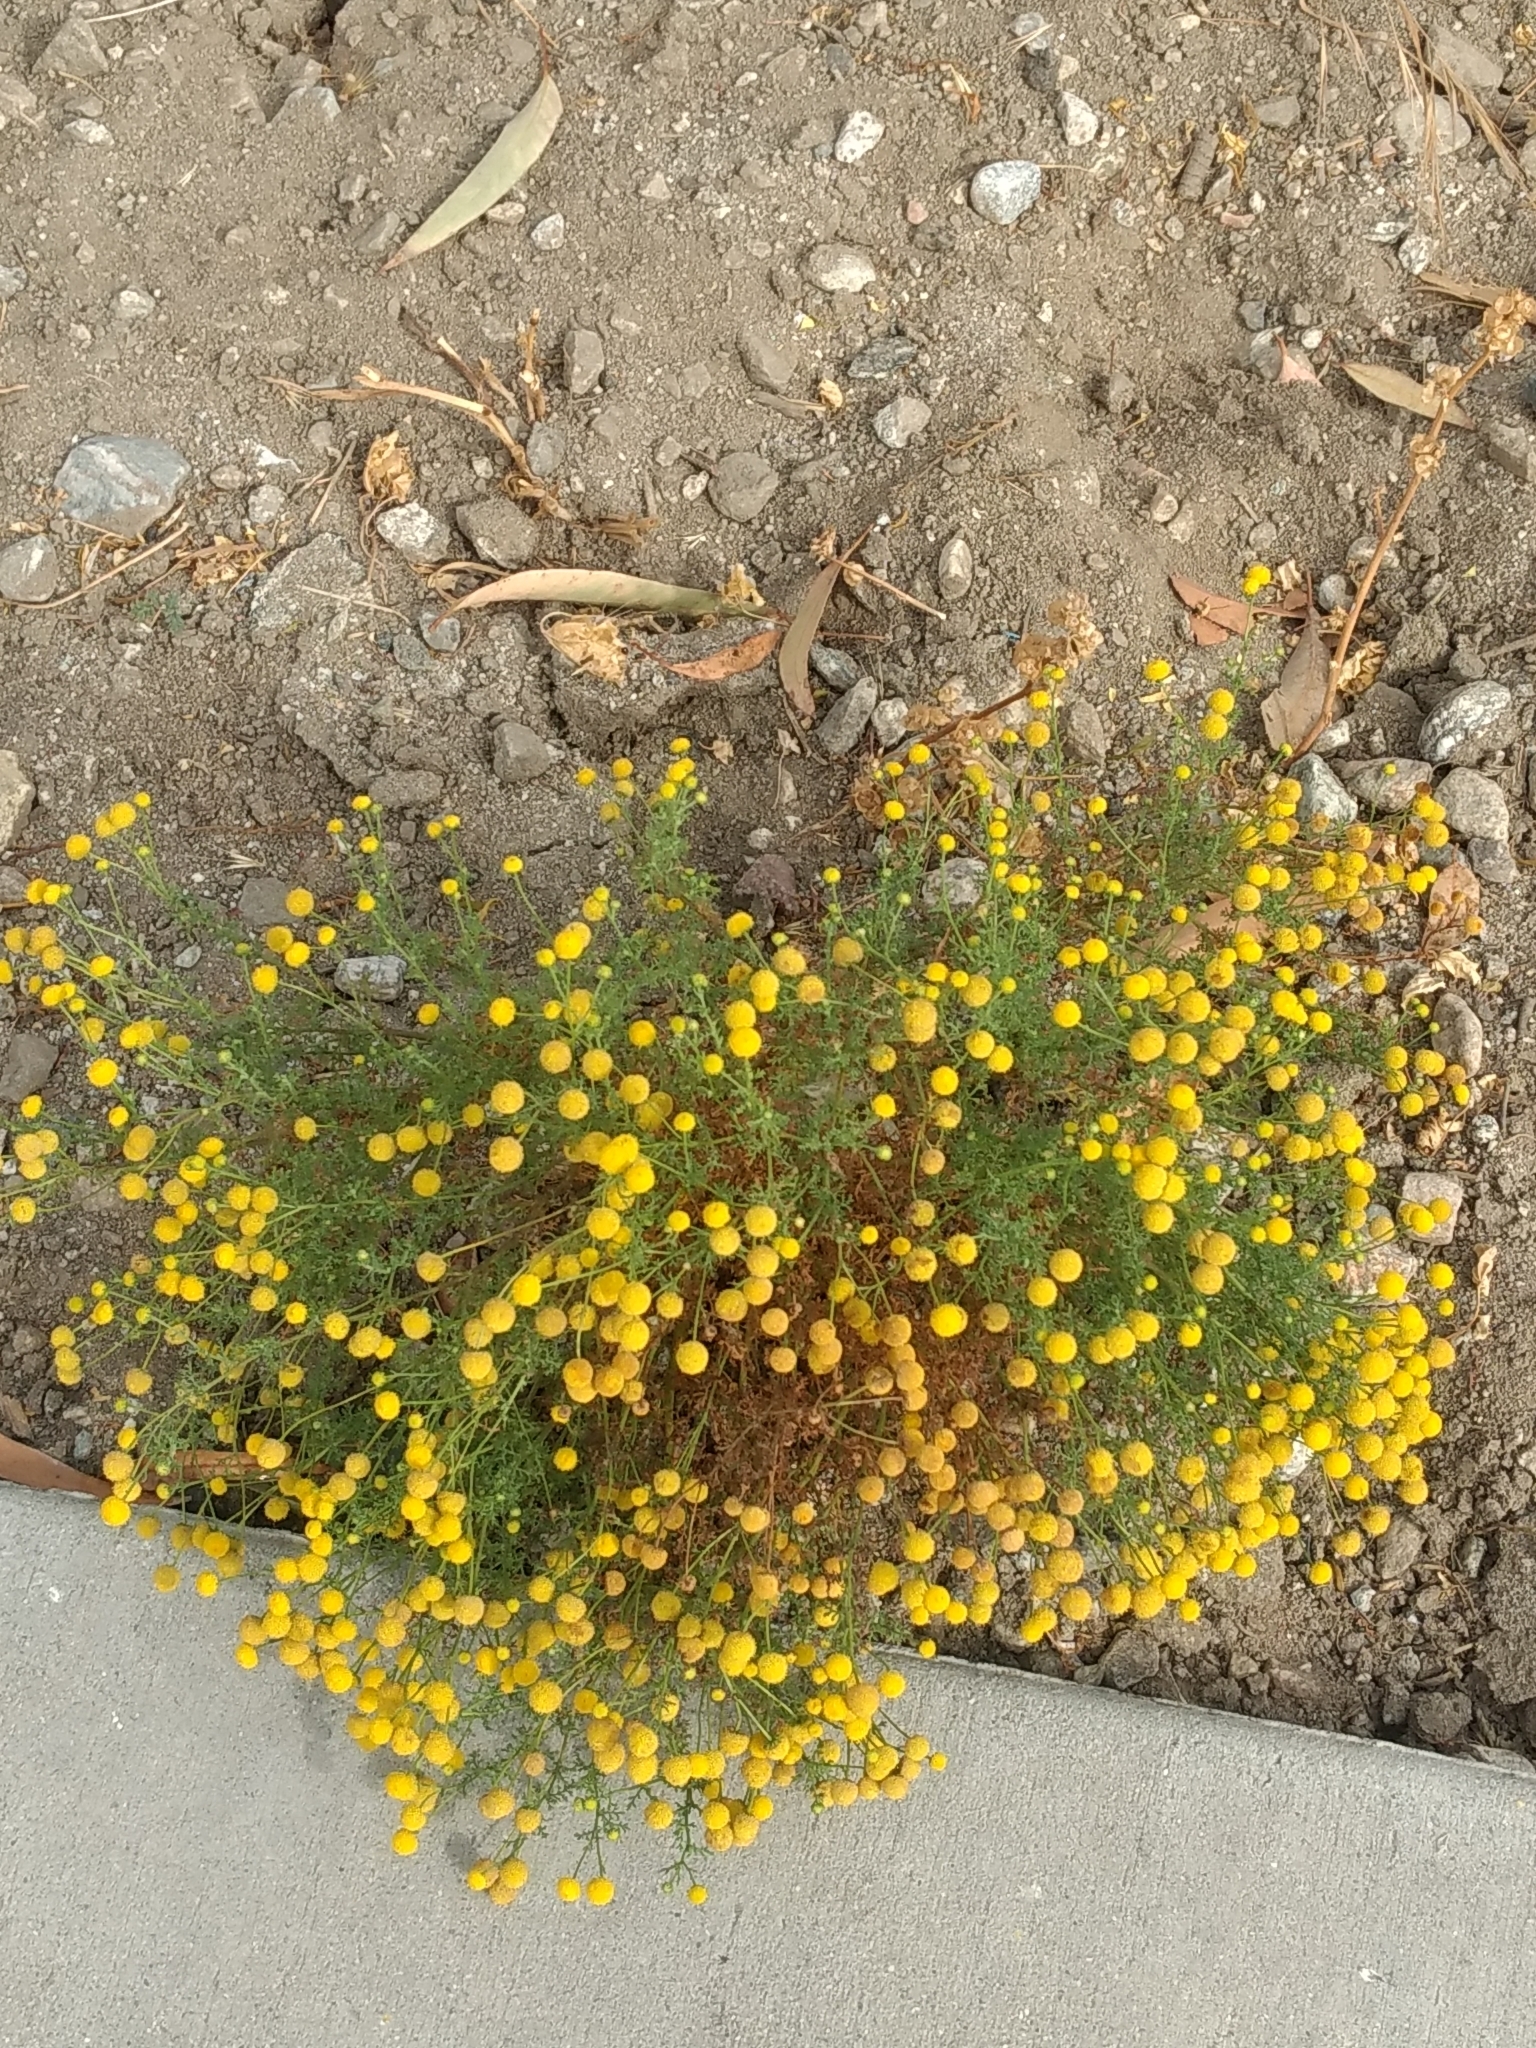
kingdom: Plantae
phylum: Tracheophyta
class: Magnoliopsida
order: Asterales
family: Asteraceae
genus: Oncosiphon
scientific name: Oncosiphon pilulifer
